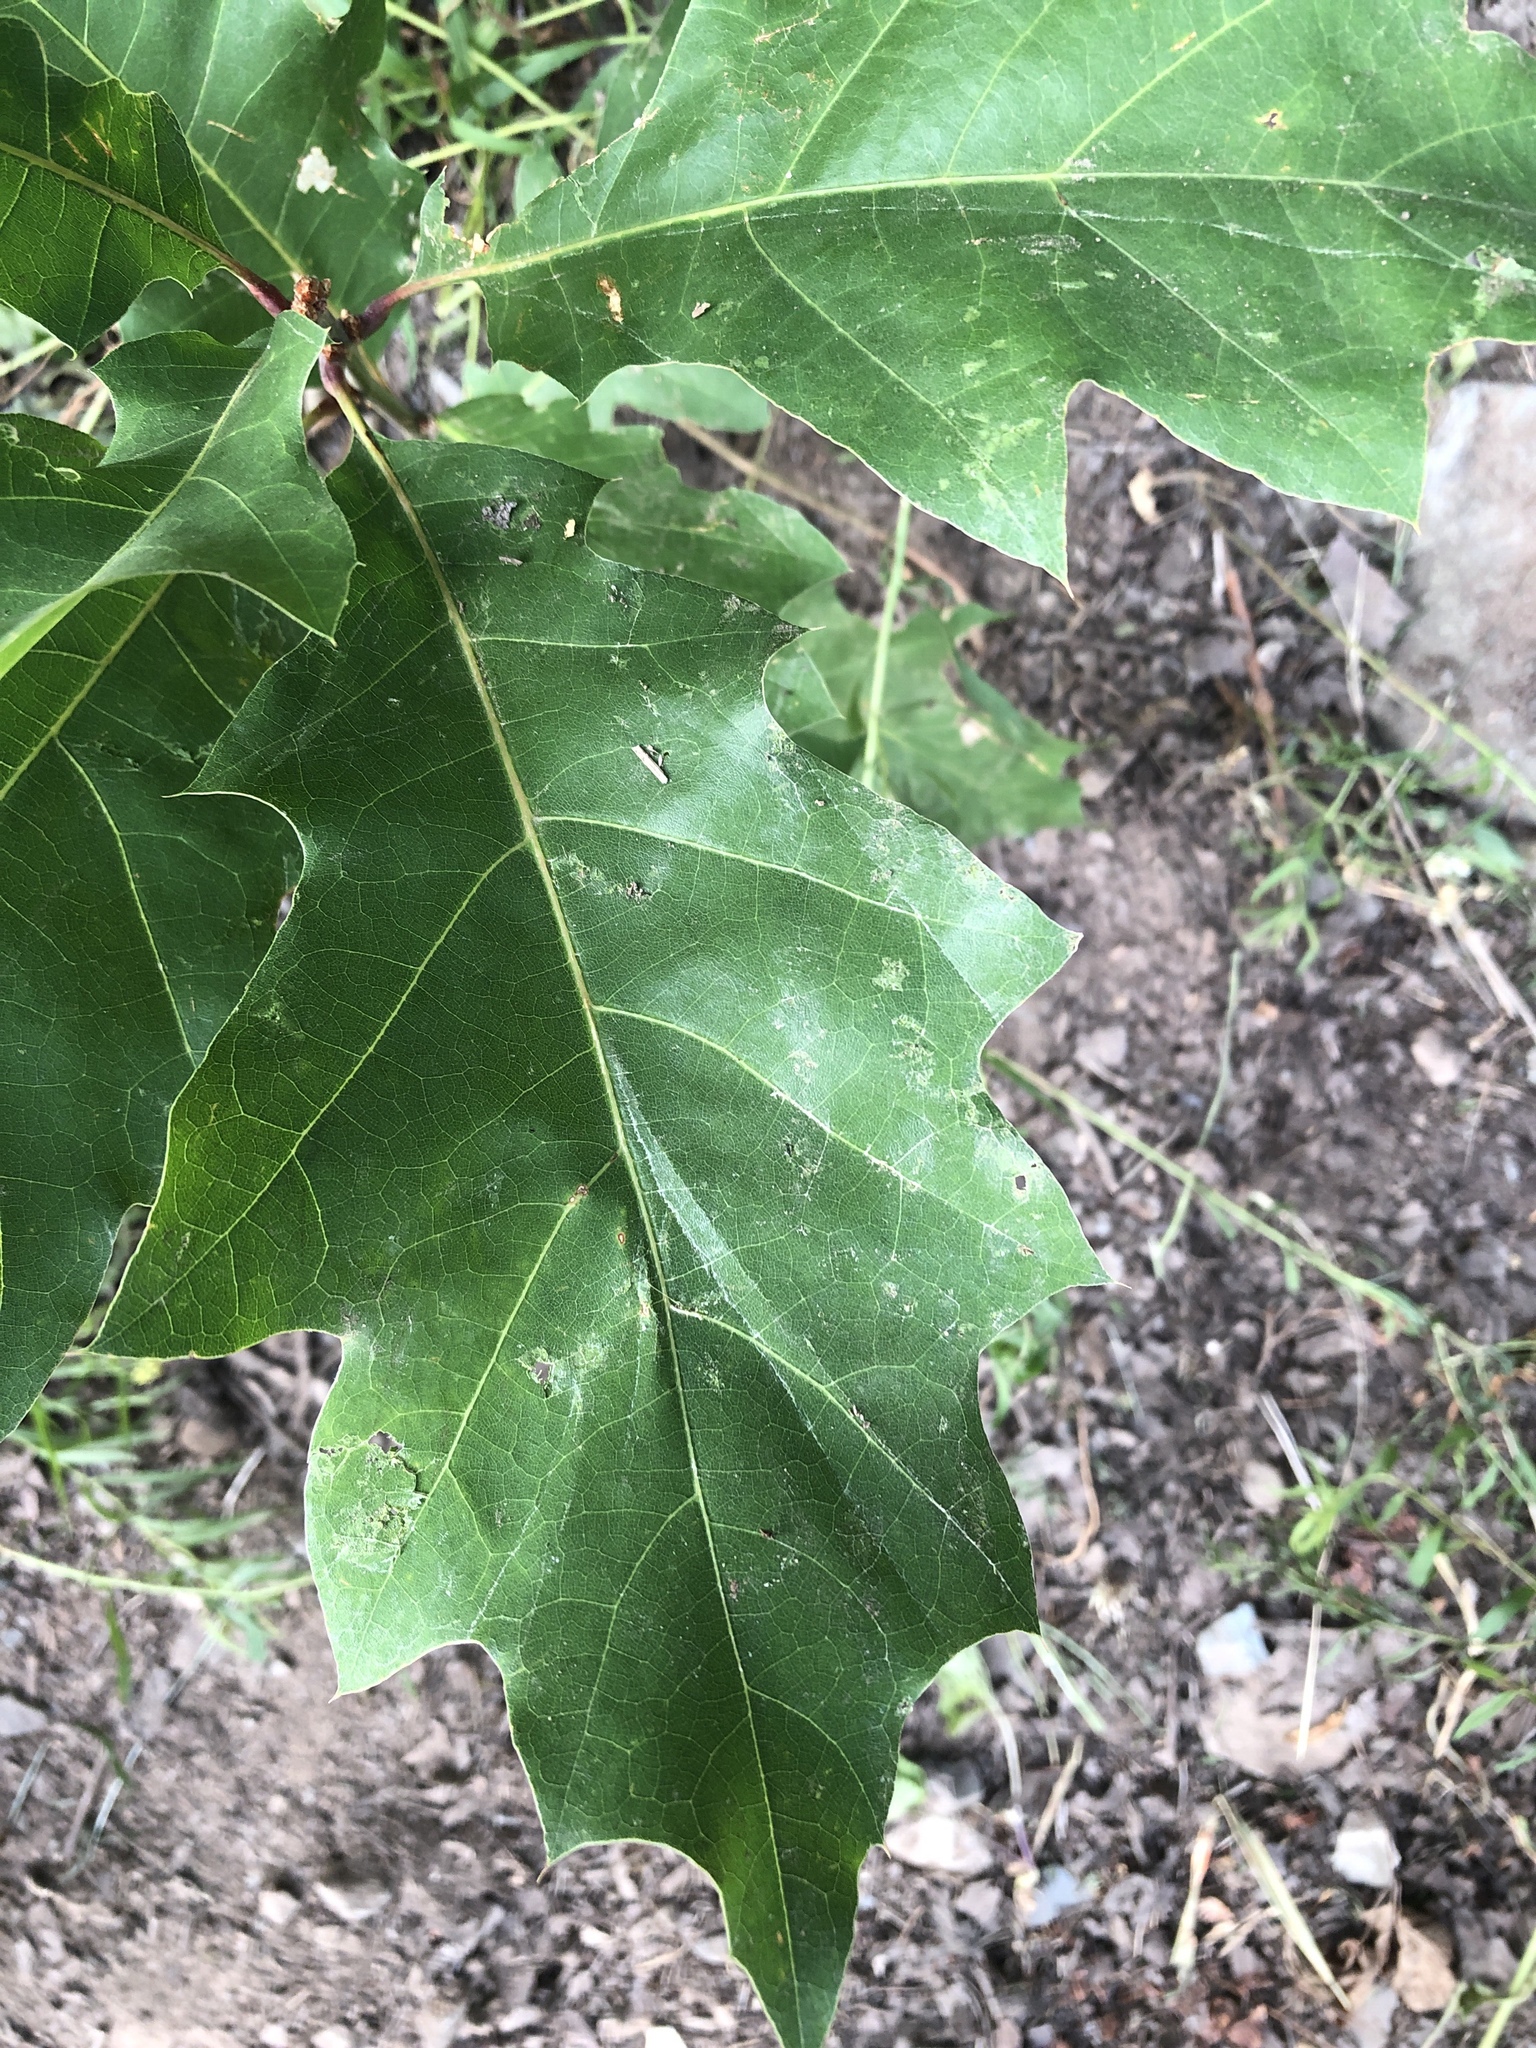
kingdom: Plantae
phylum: Tracheophyta
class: Magnoliopsida
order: Fagales
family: Fagaceae
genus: Quercus
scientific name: Quercus rubra
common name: Red oak
